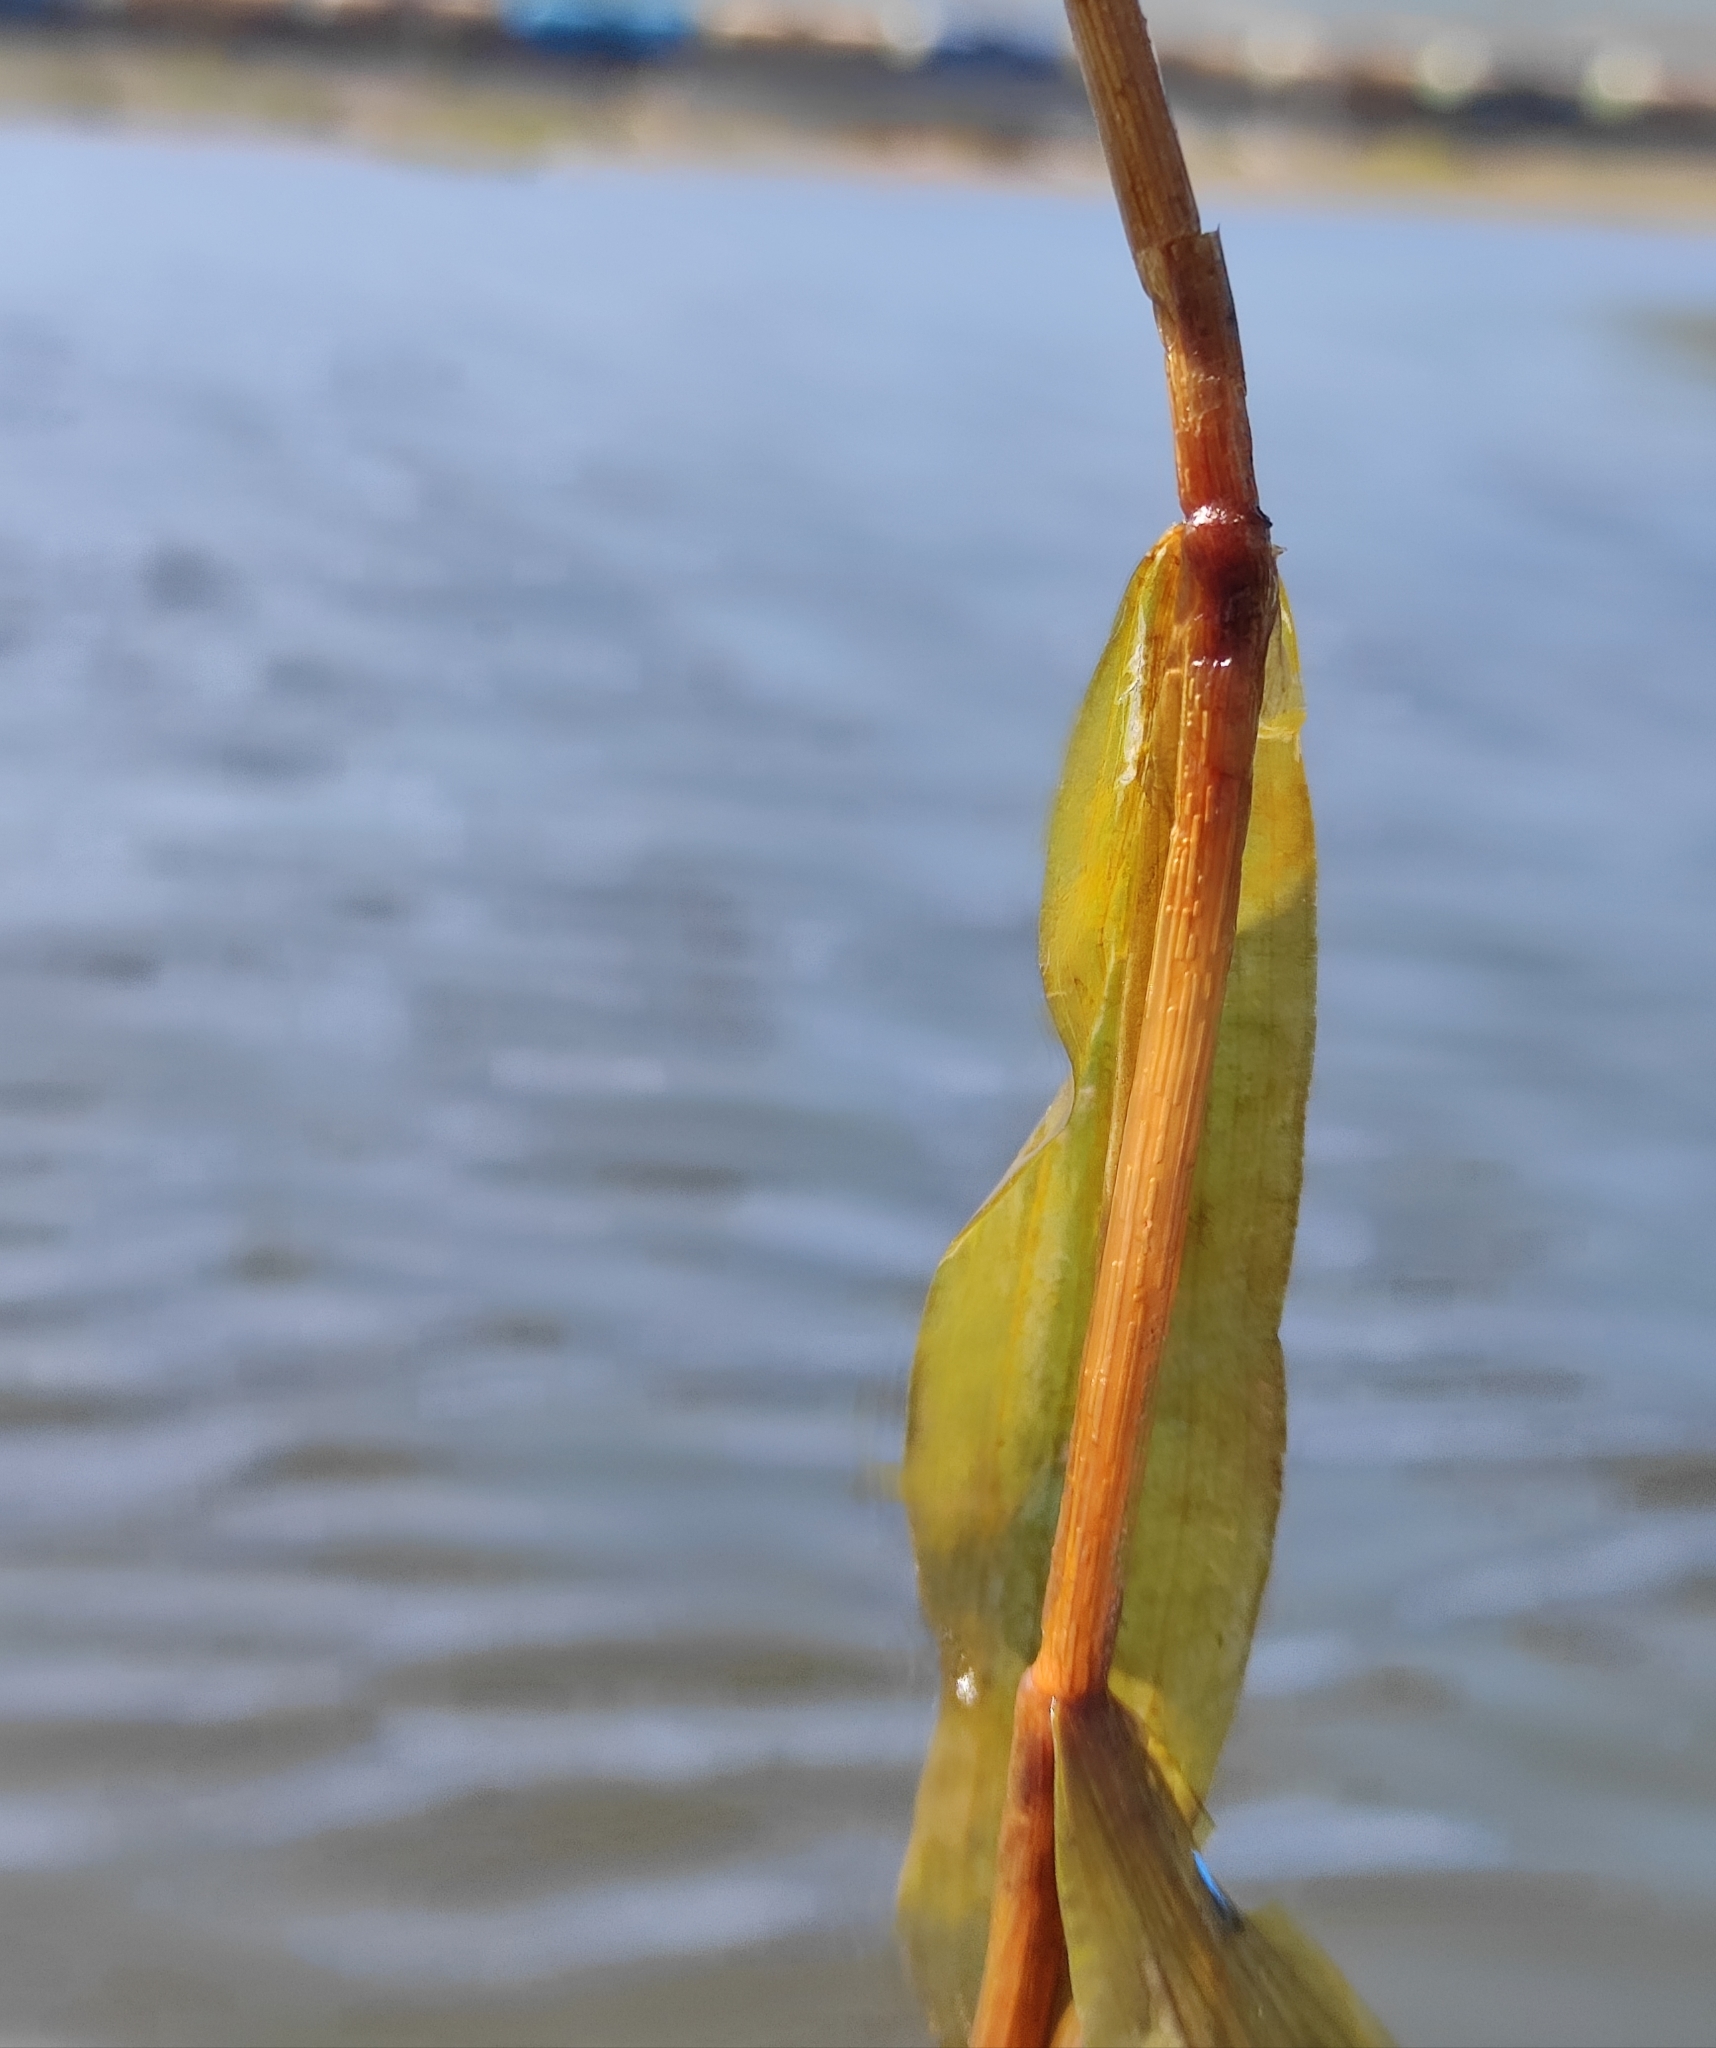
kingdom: Plantae
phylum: Tracheophyta
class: Liliopsida
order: Alismatales
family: Potamogetonaceae
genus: Potamogeton
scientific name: Potamogeton alpinus
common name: Red pondweed
